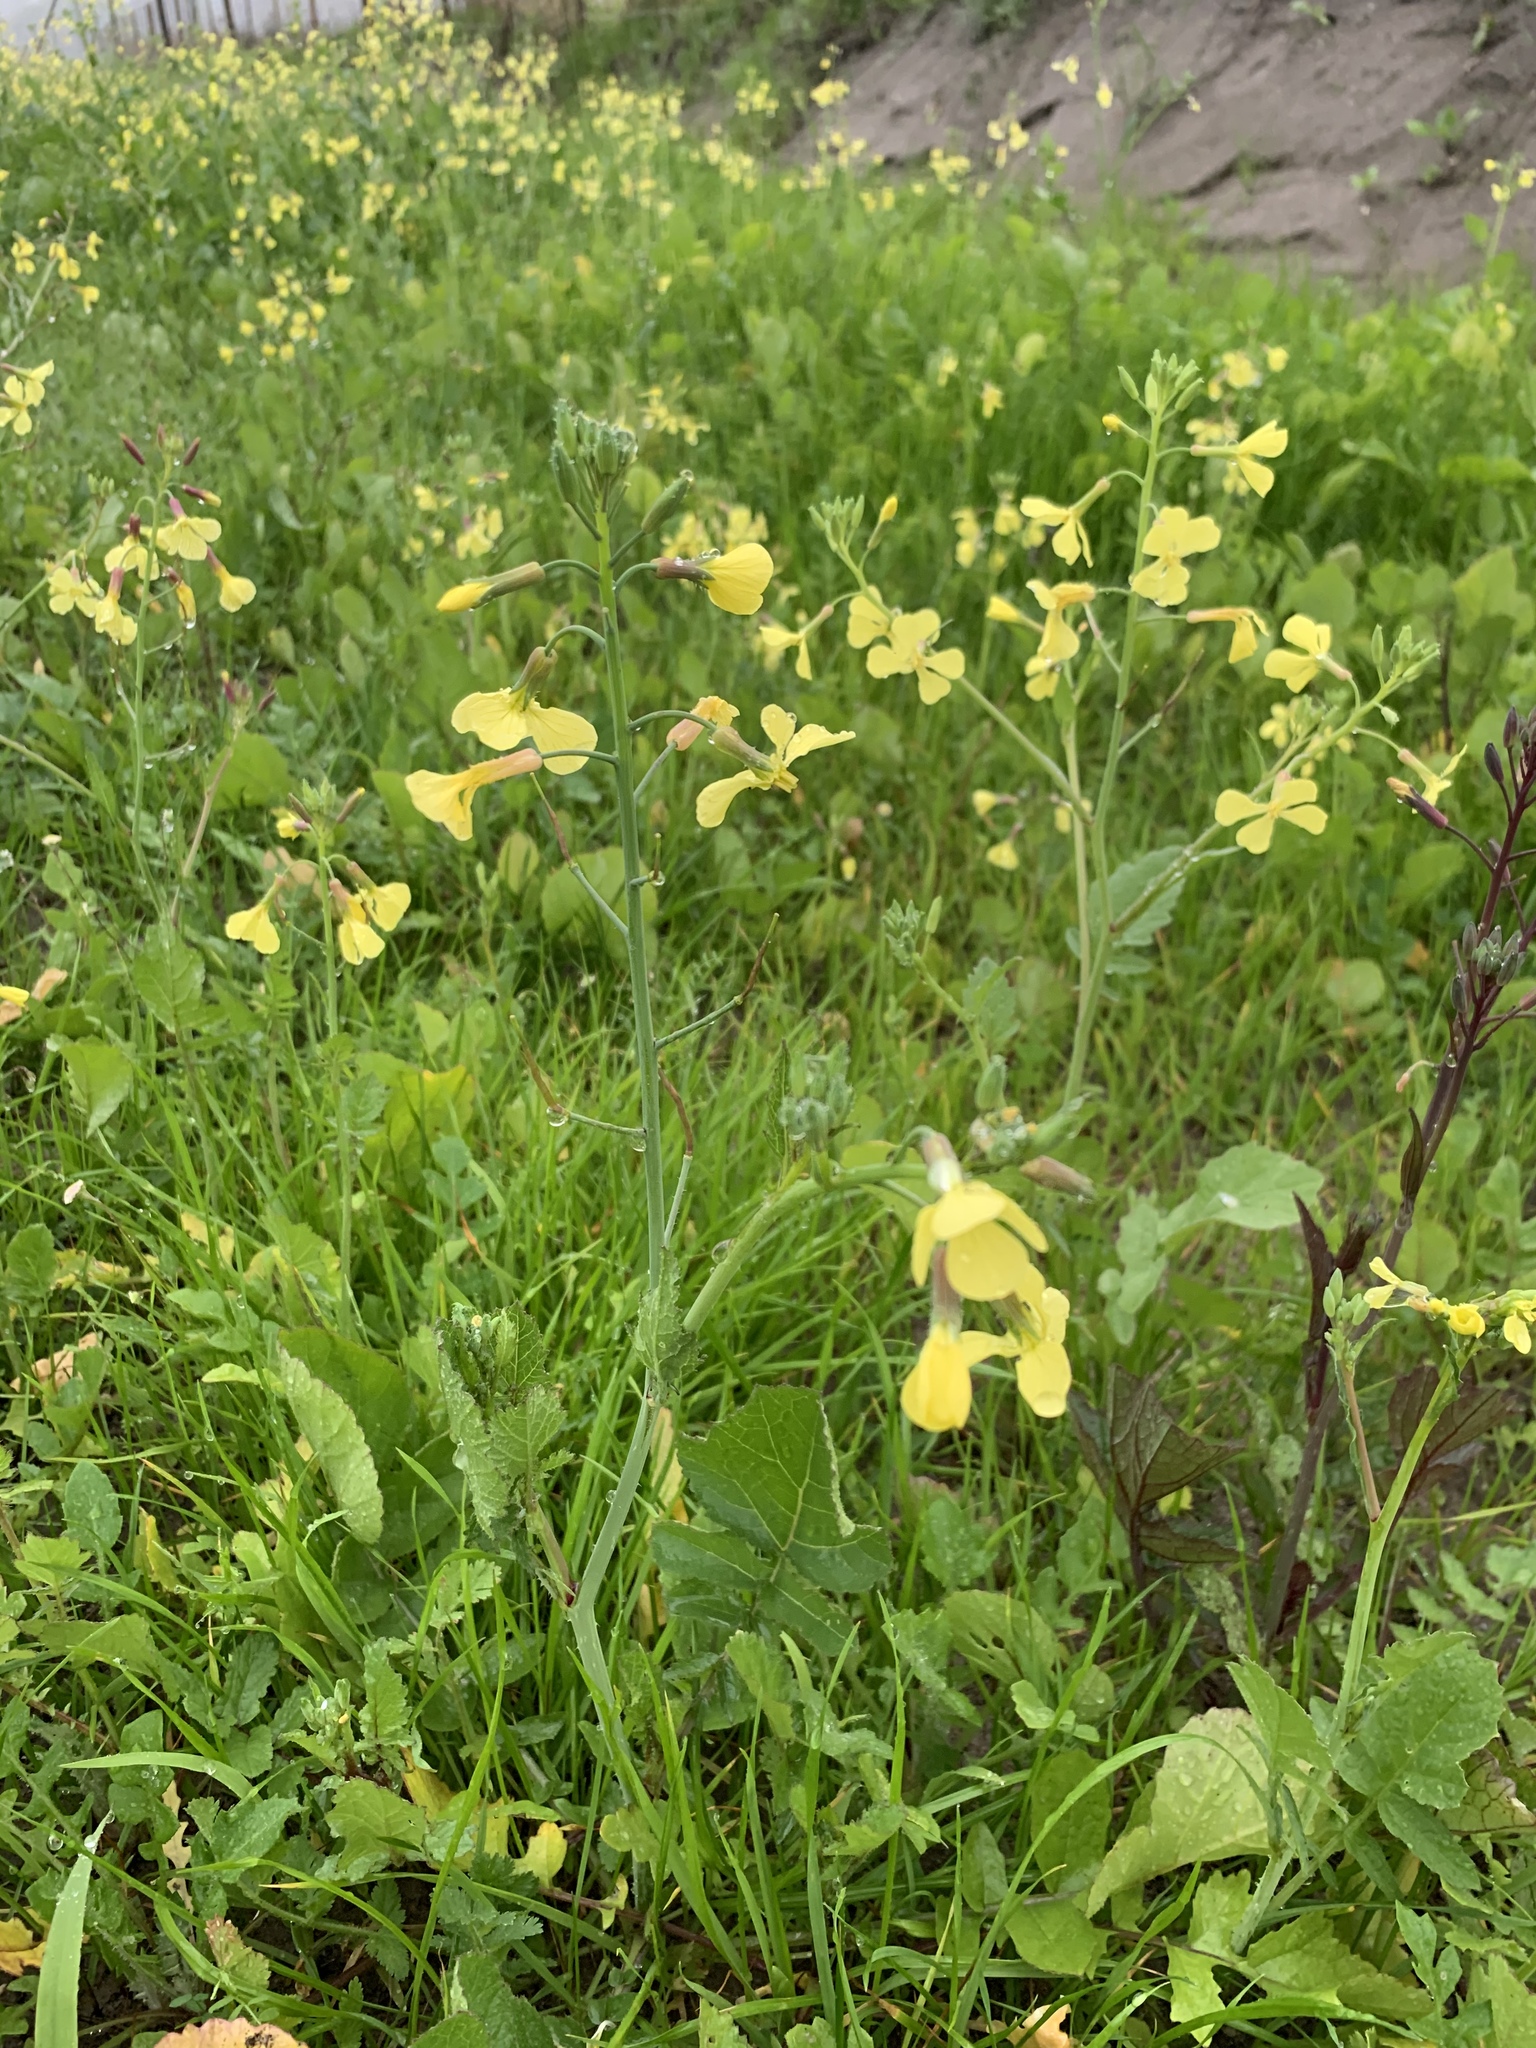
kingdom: Plantae
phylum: Tracheophyta
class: Magnoliopsida
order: Brassicales
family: Brassicaceae
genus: Raphanus
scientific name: Raphanus raphanistrum
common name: Wild radish
